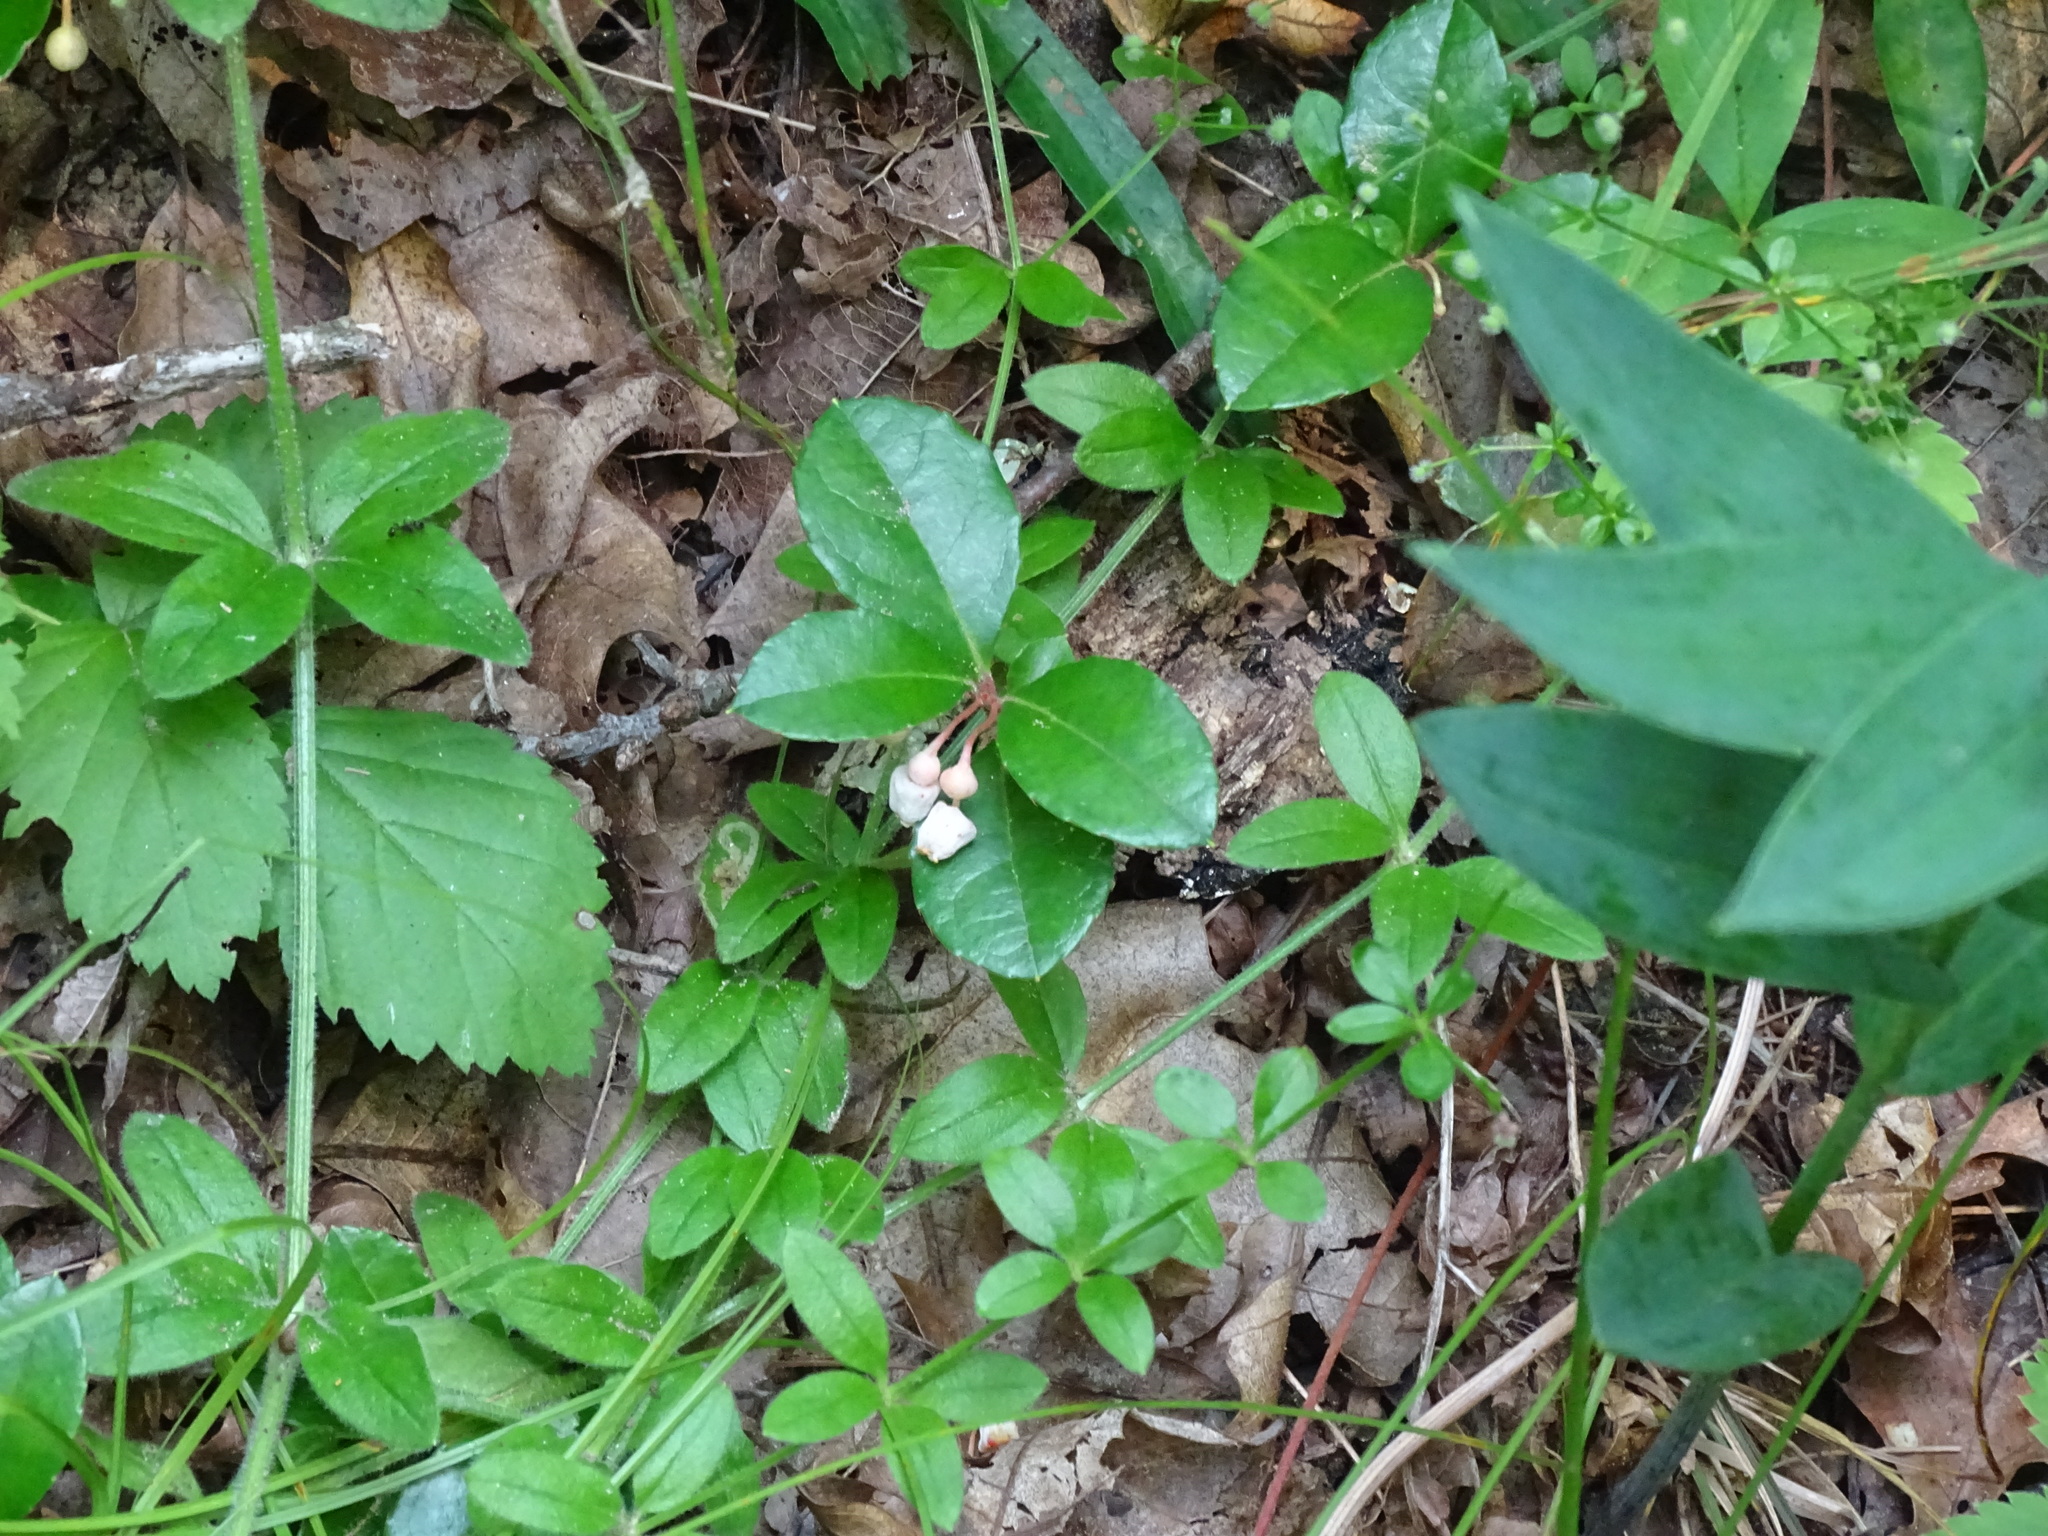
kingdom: Plantae
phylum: Tracheophyta
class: Magnoliopsida
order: Ericales
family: Ericaceae
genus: Gaultheria
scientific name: Gaultheria procumbens
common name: Checkerberry
